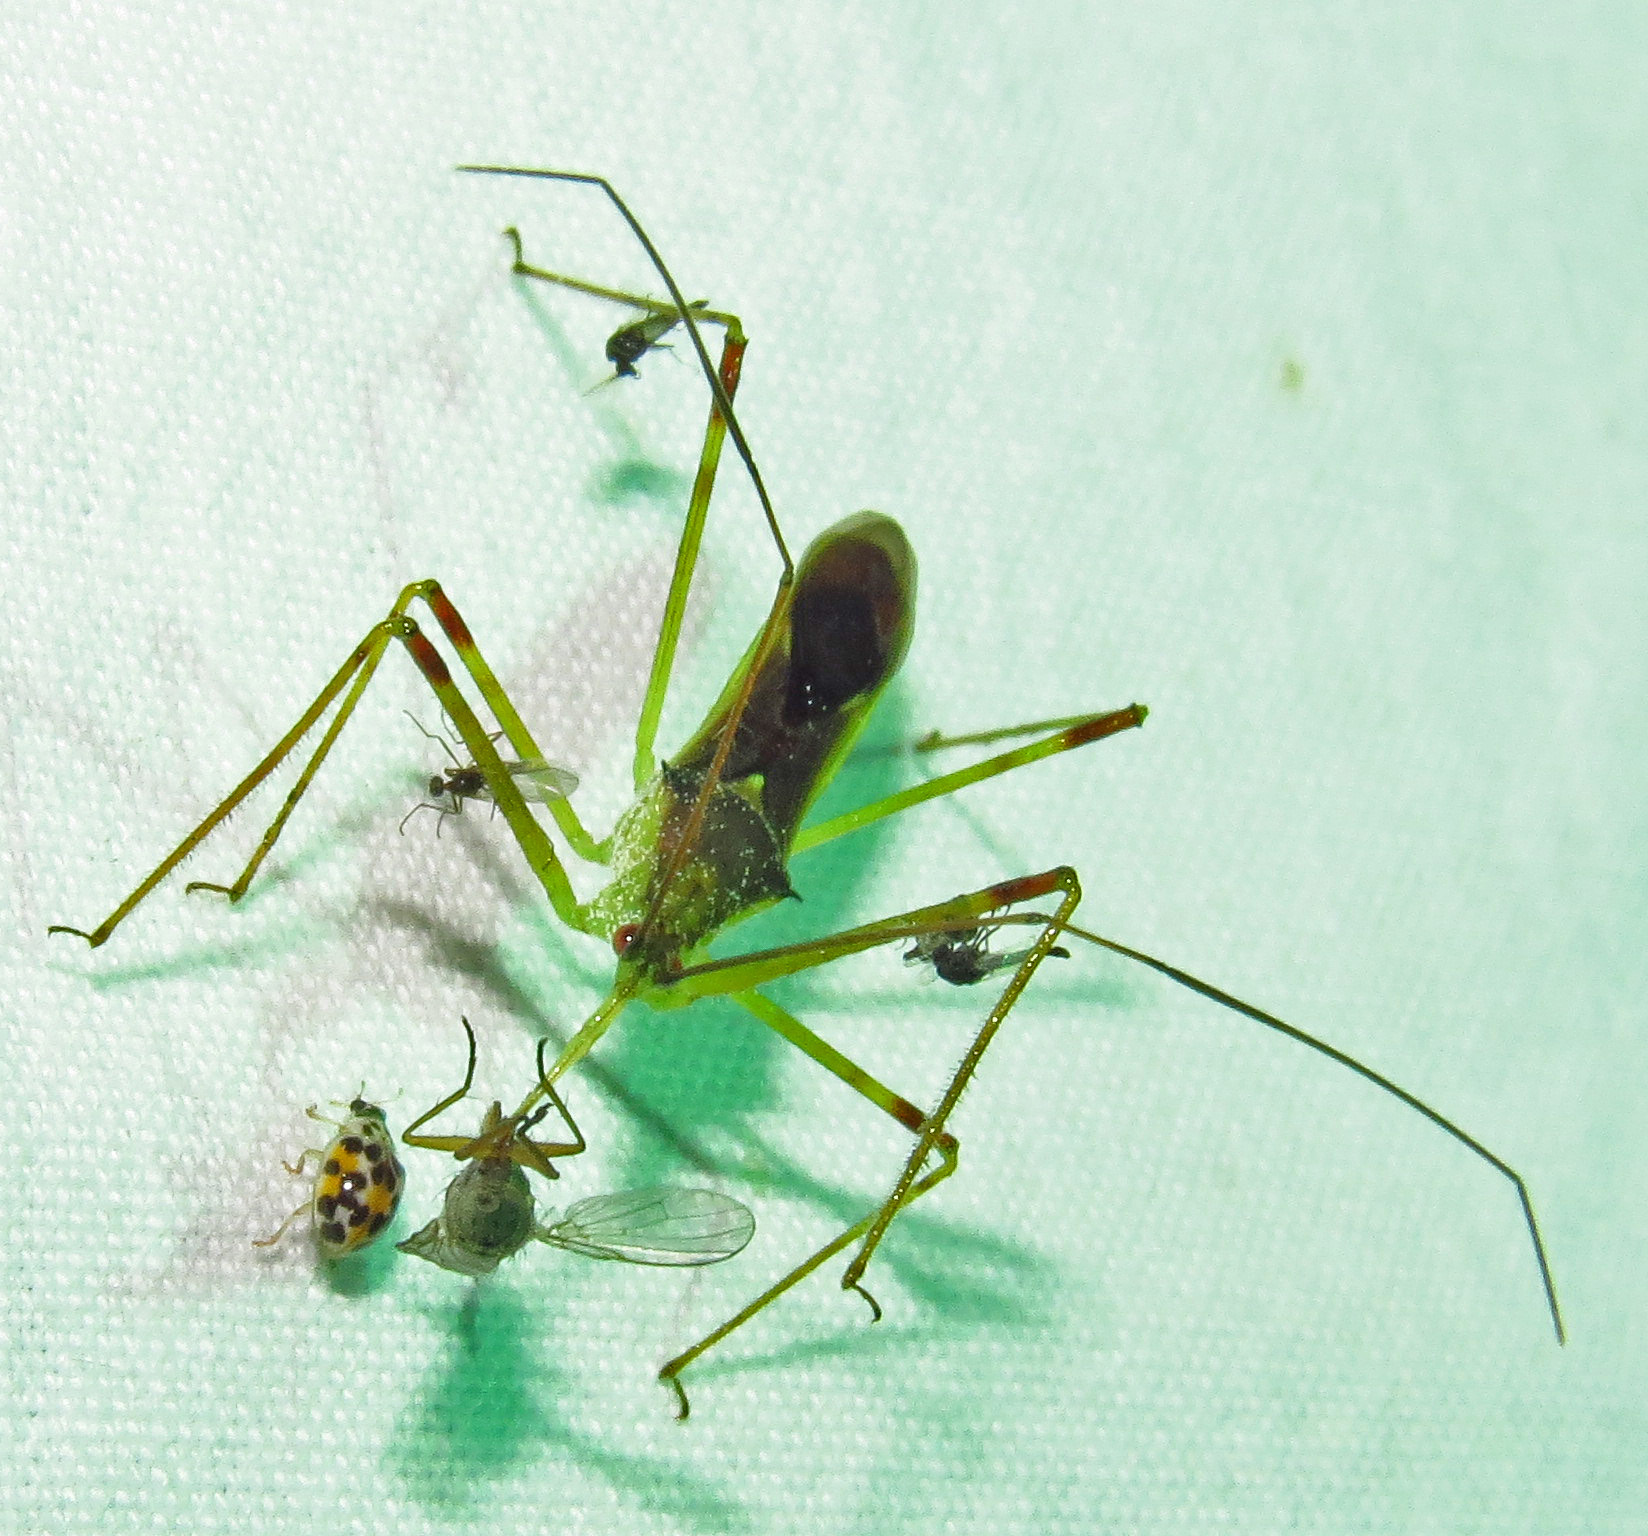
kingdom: Animalia
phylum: Arthropoda
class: Insecta
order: Hemiptera
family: Reduviidae
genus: Zelus
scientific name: Zelus luridus
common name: Pale green assassin bug
